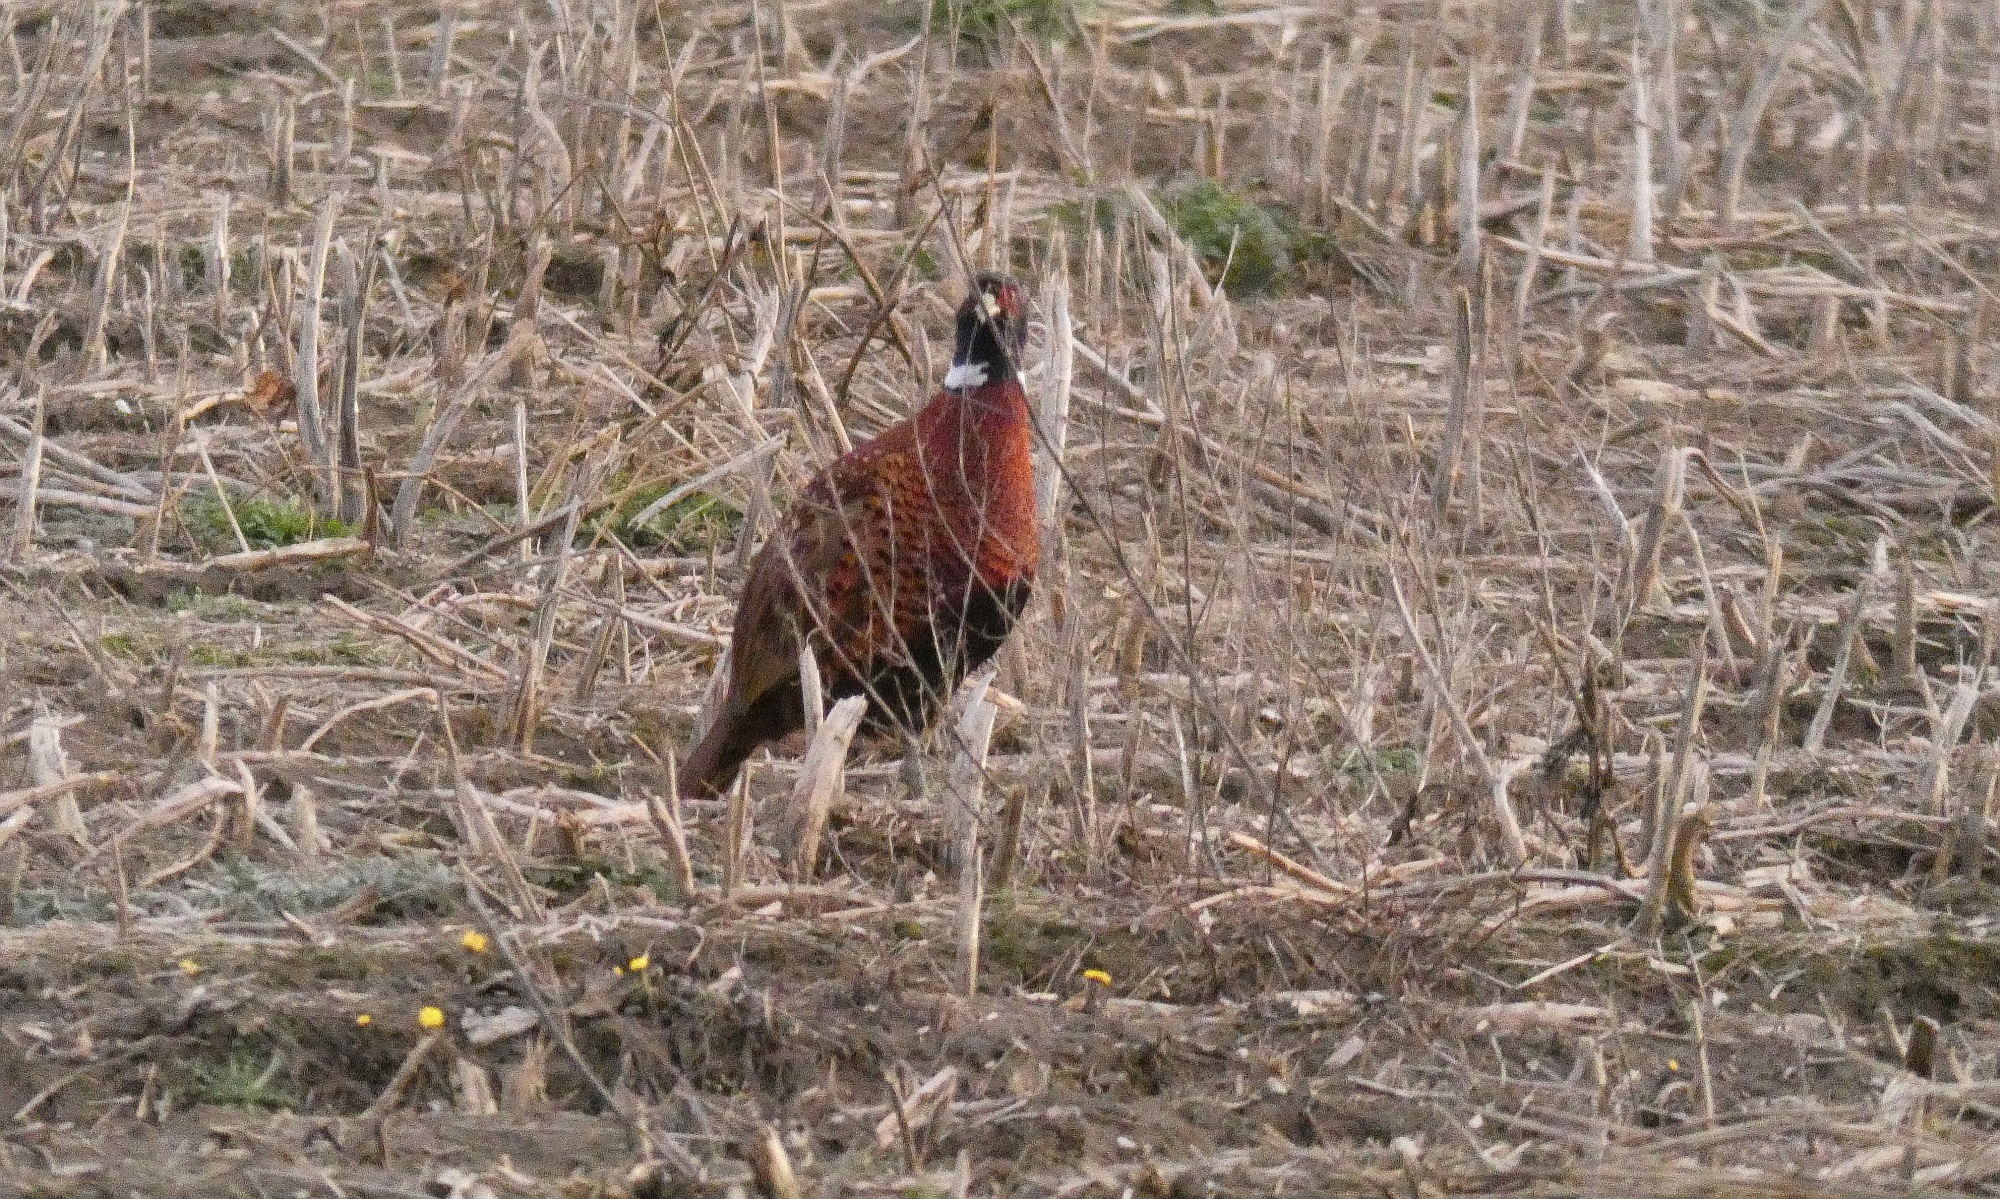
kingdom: Animalia
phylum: Chordata
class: Aves
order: Galliformes
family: Phasianidae
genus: Phasianus
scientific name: Phasianus colchicus
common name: Common pheasant
